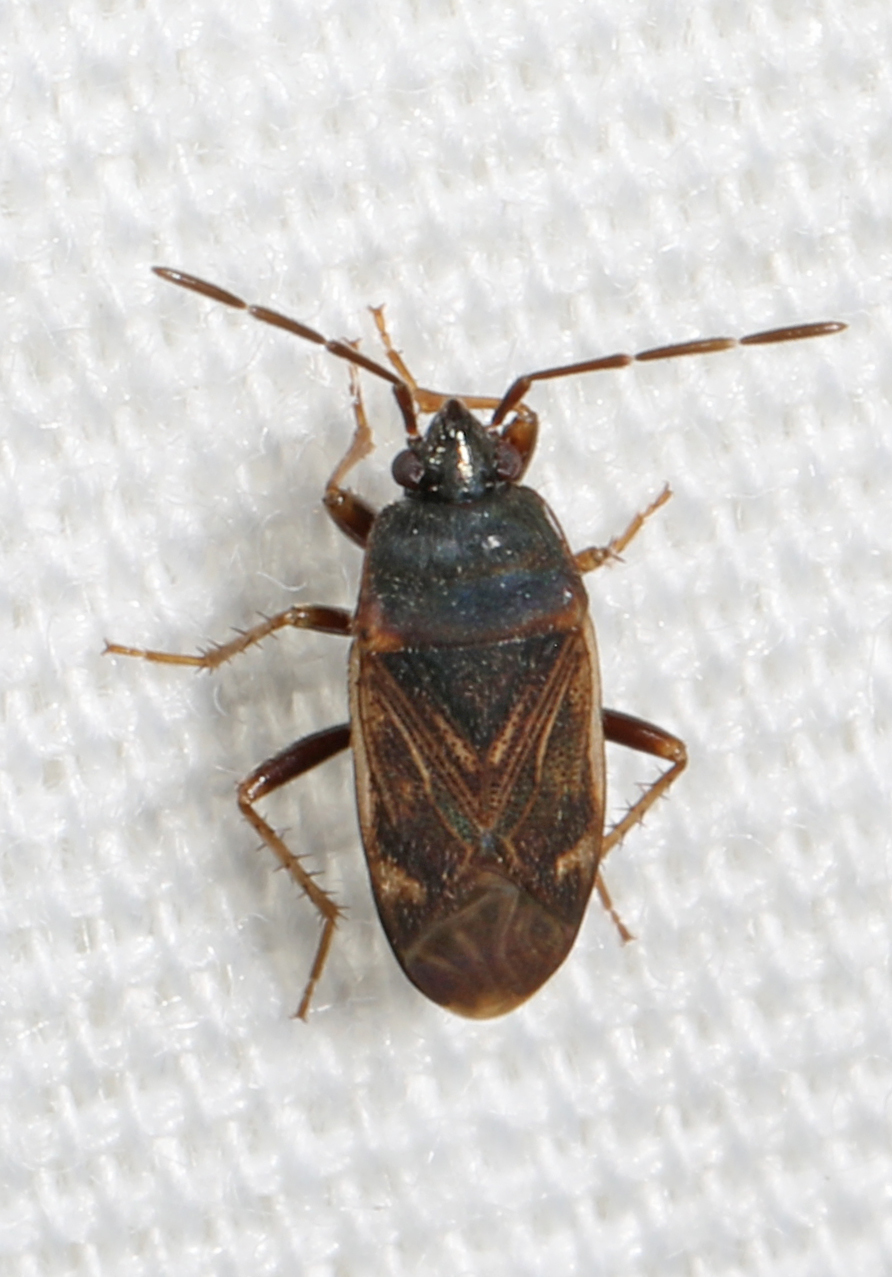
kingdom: Animalia
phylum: Arthropoda
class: Insecta
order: Hemiptera
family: Rhyparochromidae
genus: Paragonatas
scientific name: Paragonatas divergens
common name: Seed bug
